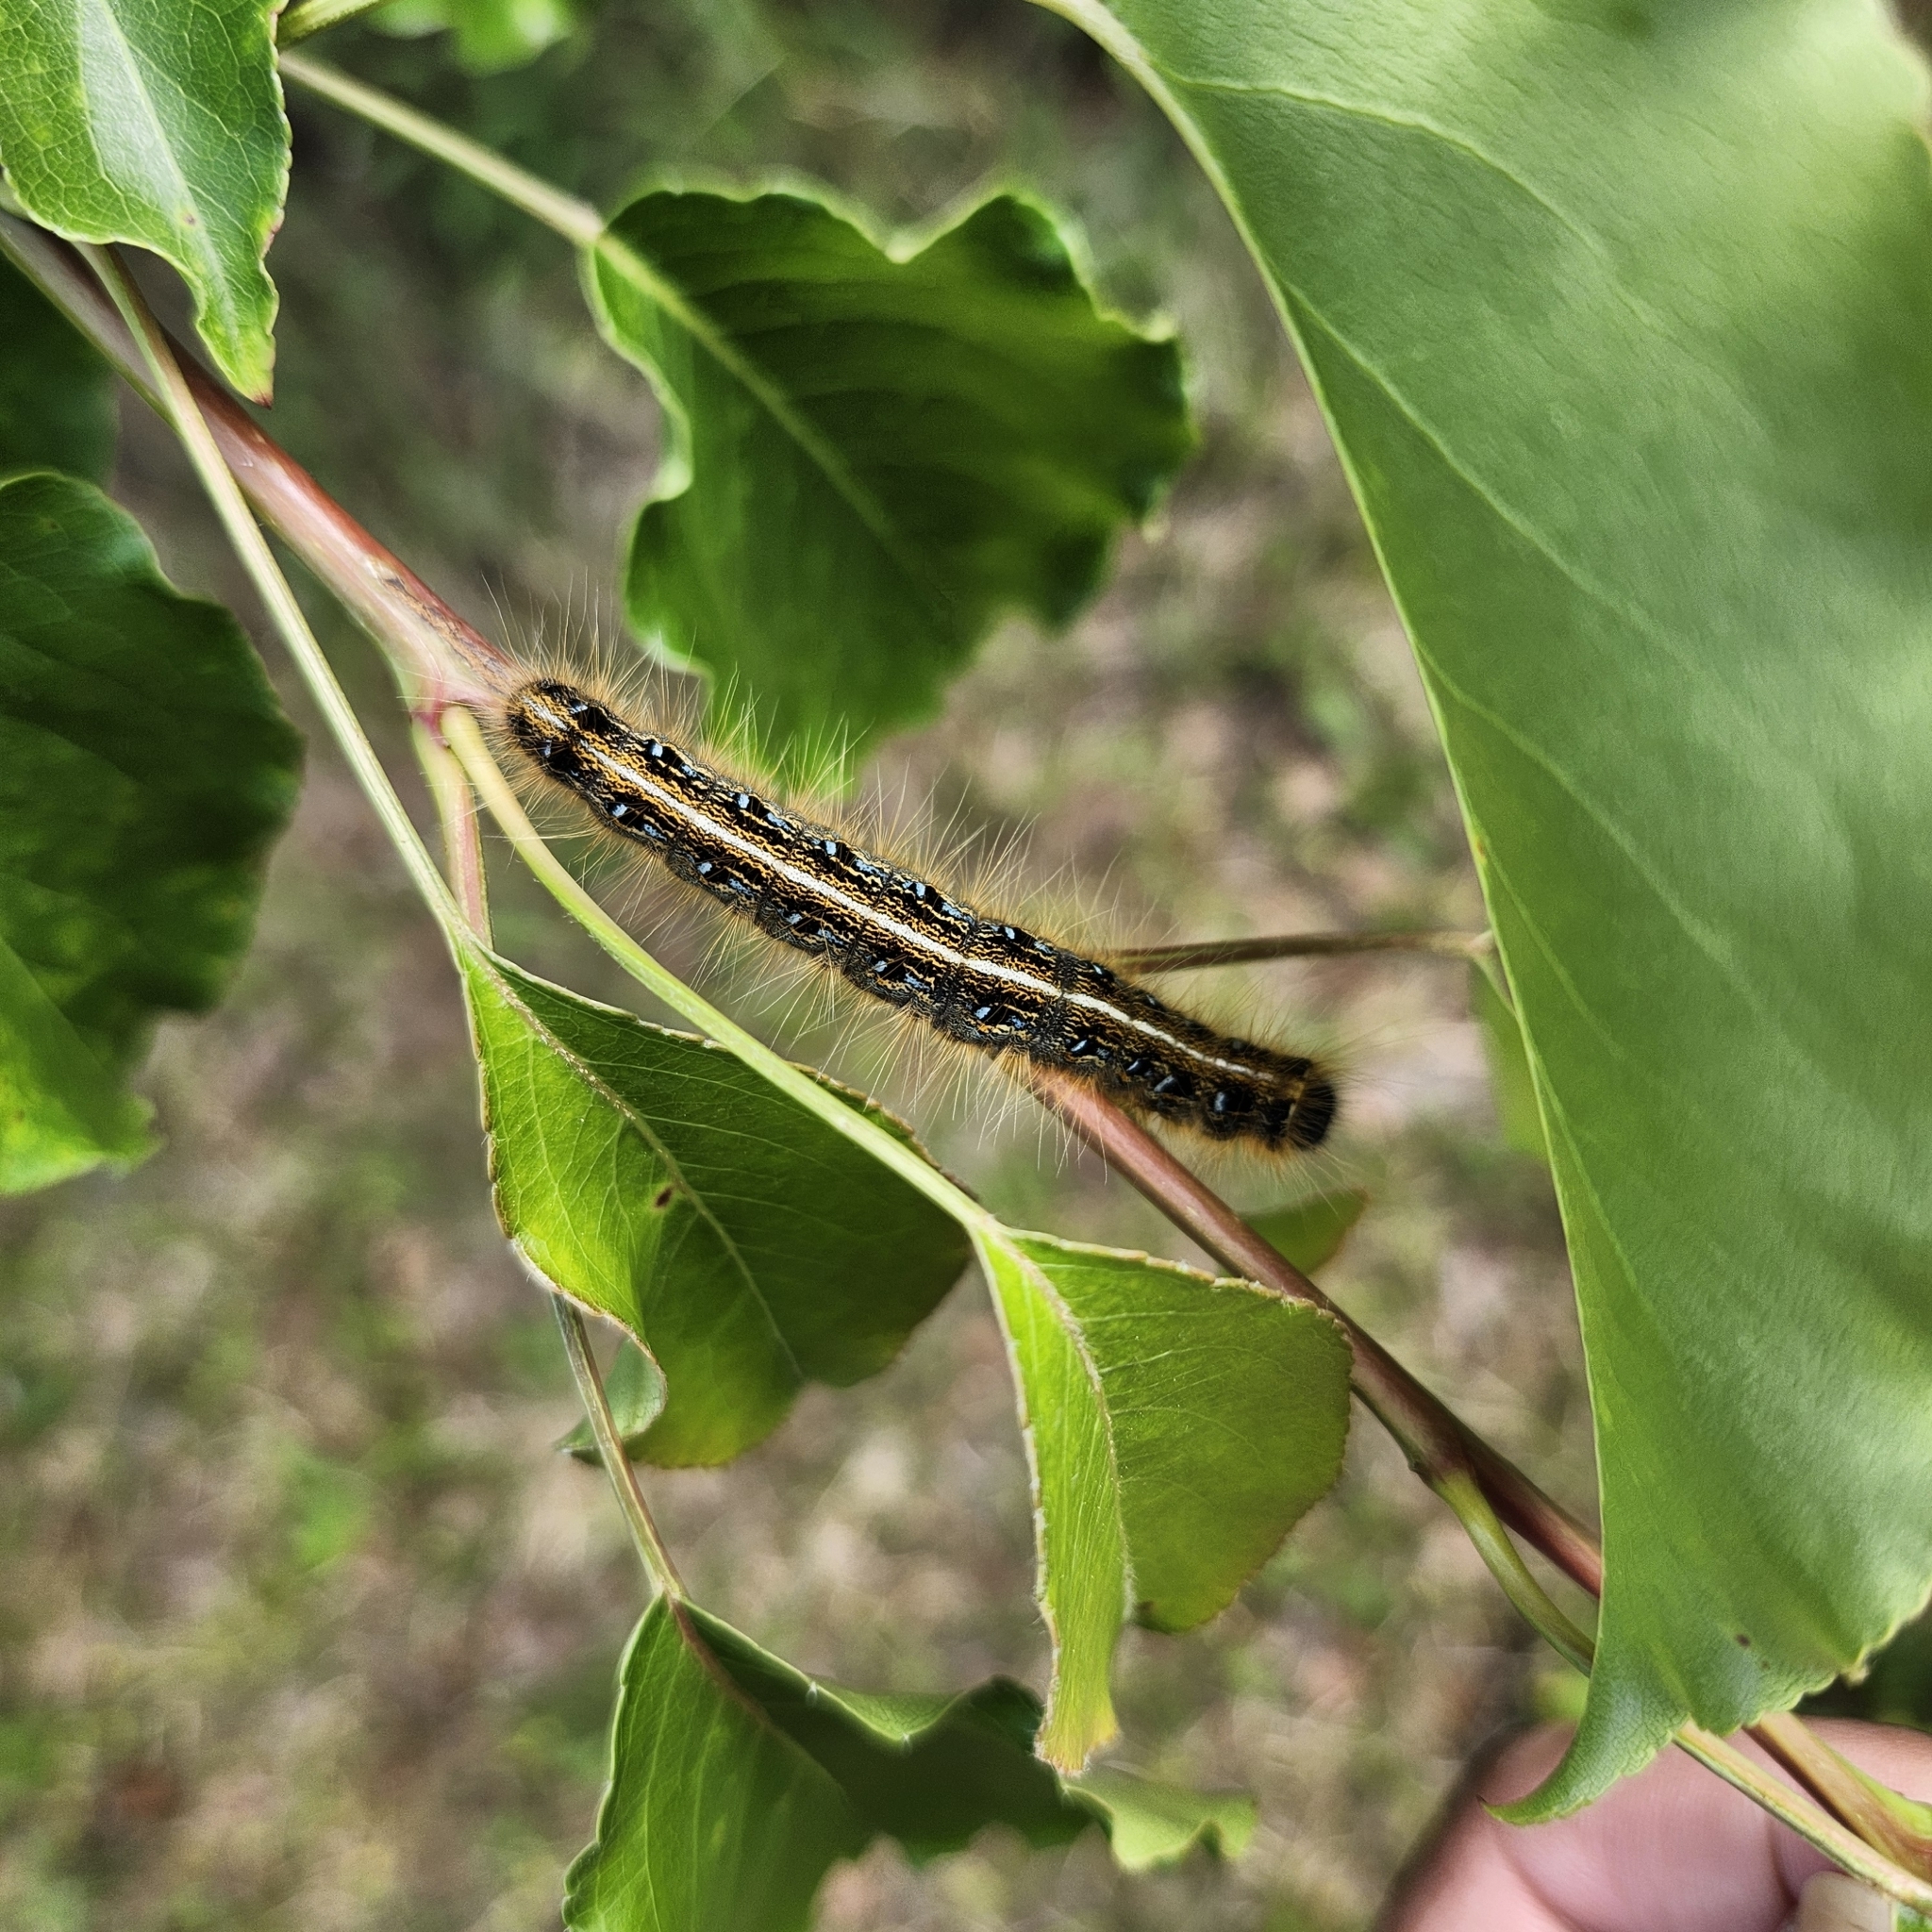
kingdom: Animalia
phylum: Arthropoda
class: Insecta
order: Lepidoptera
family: Lasiocampidae
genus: Malacosoma
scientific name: Malacosoma americana
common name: Eastern tent caterpillar moth
